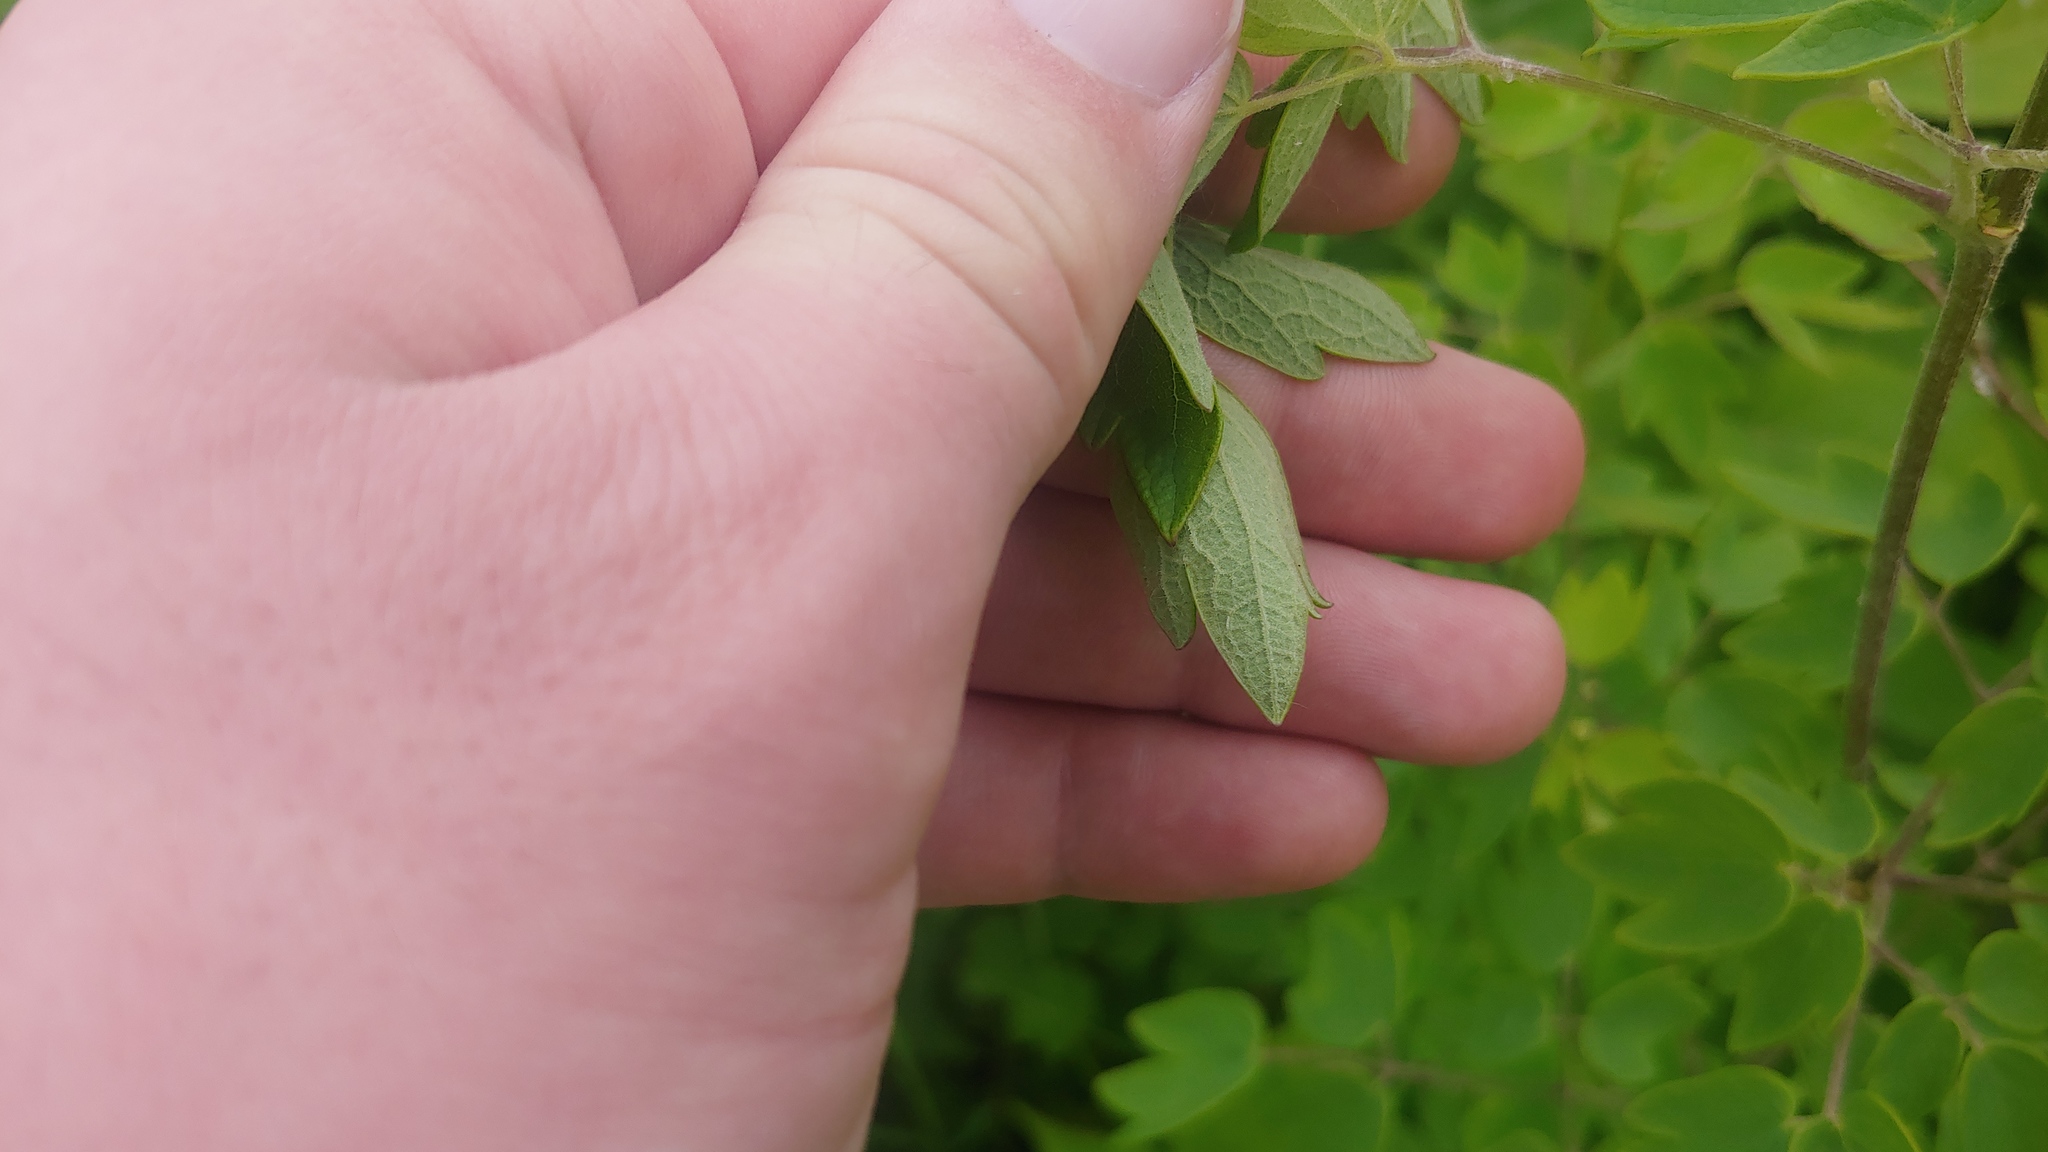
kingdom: Plantae
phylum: Tracheophyta
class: Magnoliopsida
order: Ranunculales
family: Ranunculaceae
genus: Thalictrum
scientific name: Thalictrum revolutum
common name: Waxy meadow-rue
